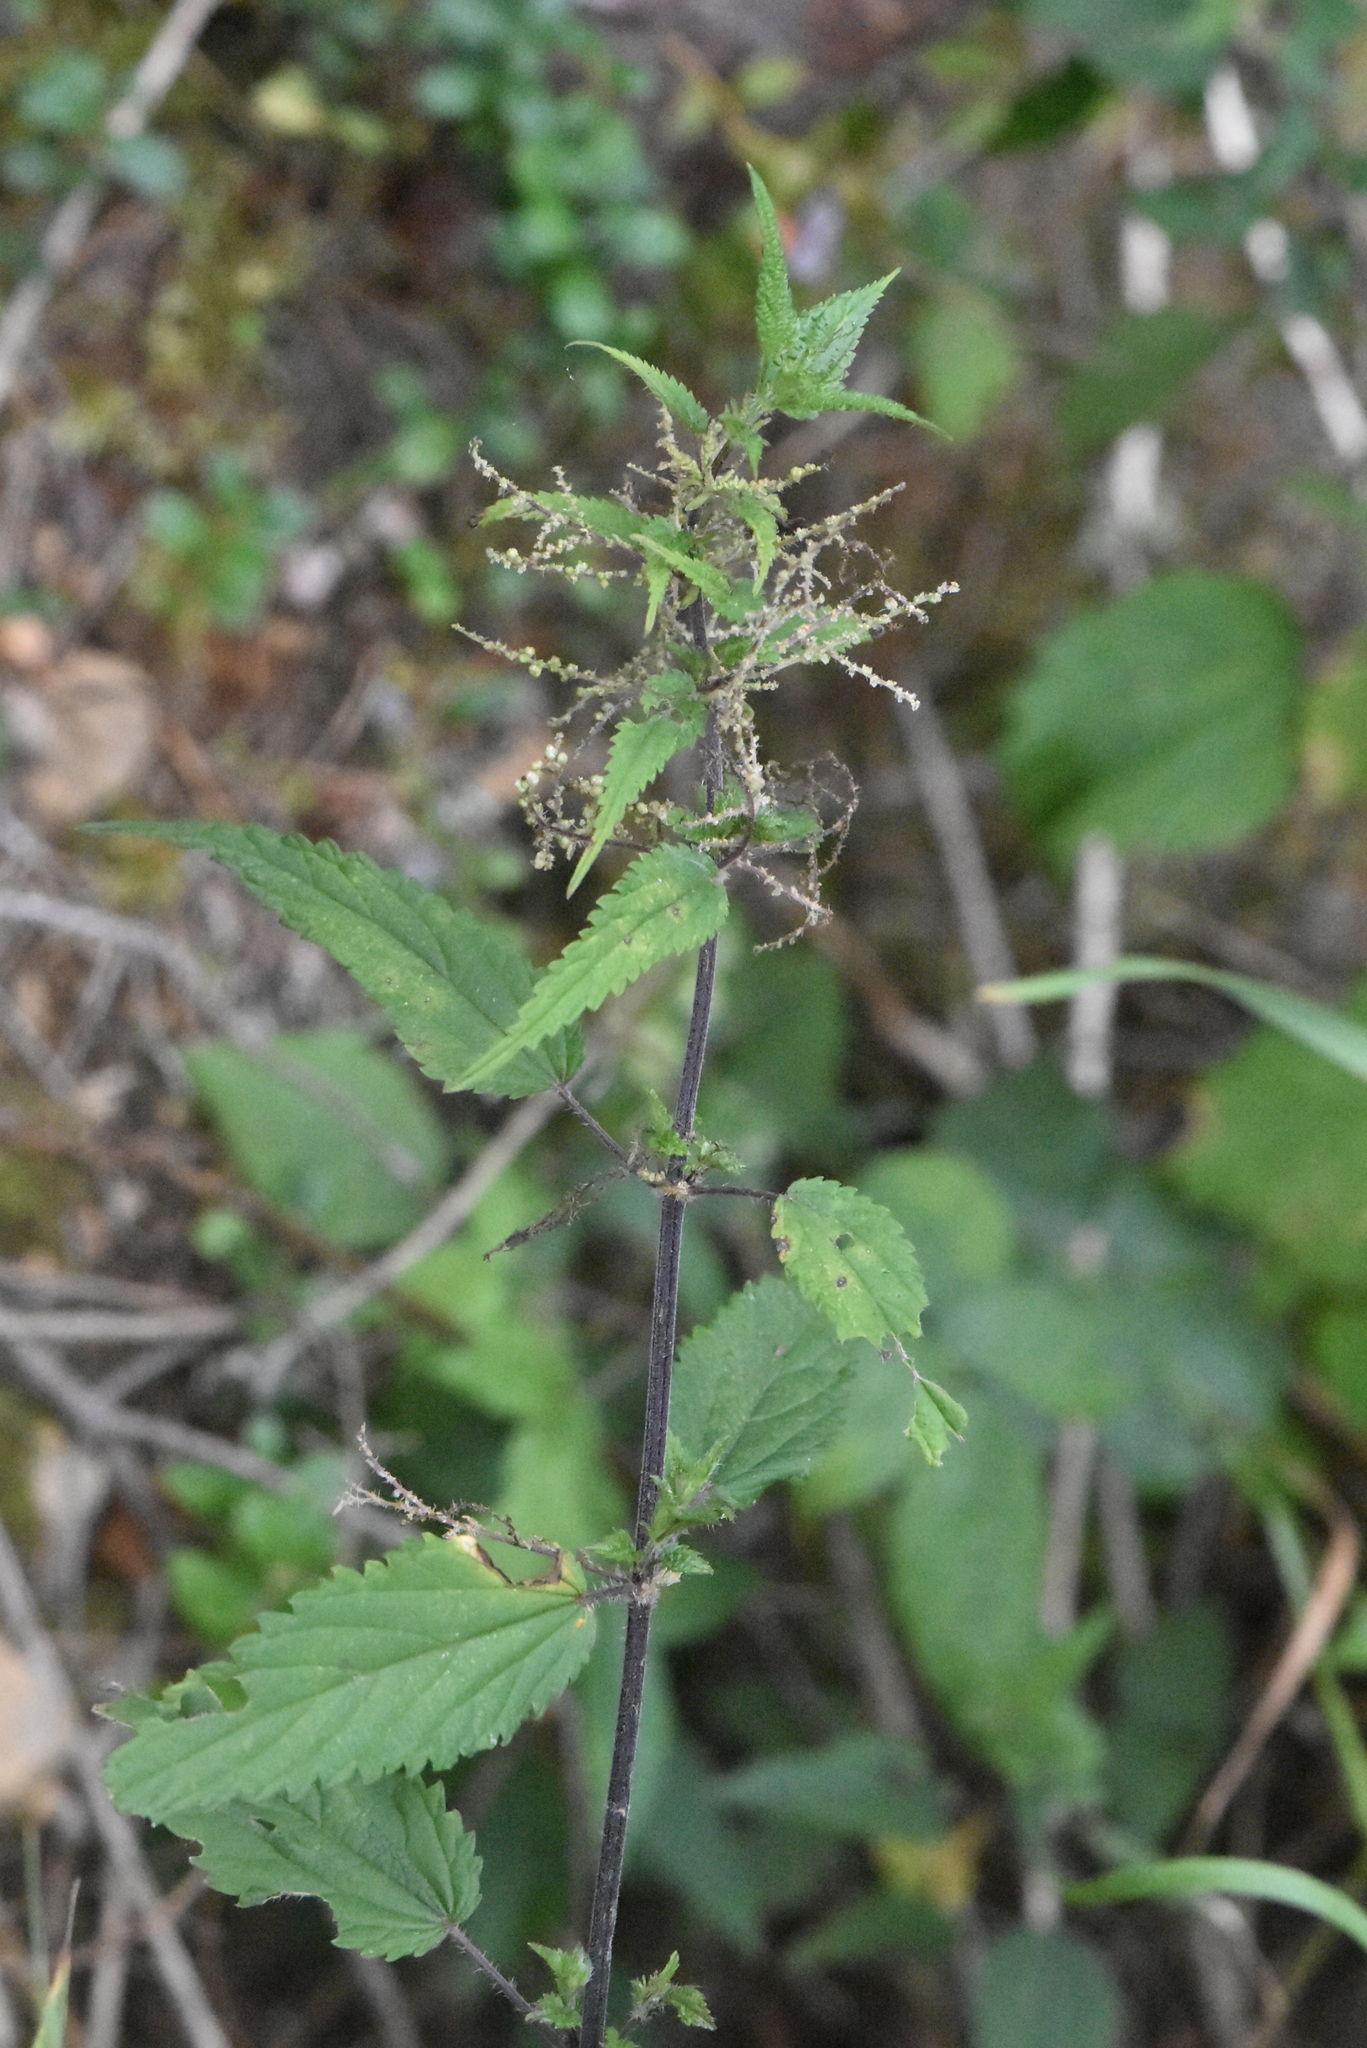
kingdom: Plantae
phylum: Tracheophyta
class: Magnoliopsida
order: Rosales
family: Urticaceae
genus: Urtica
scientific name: Urtica dioica
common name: Common nettle
